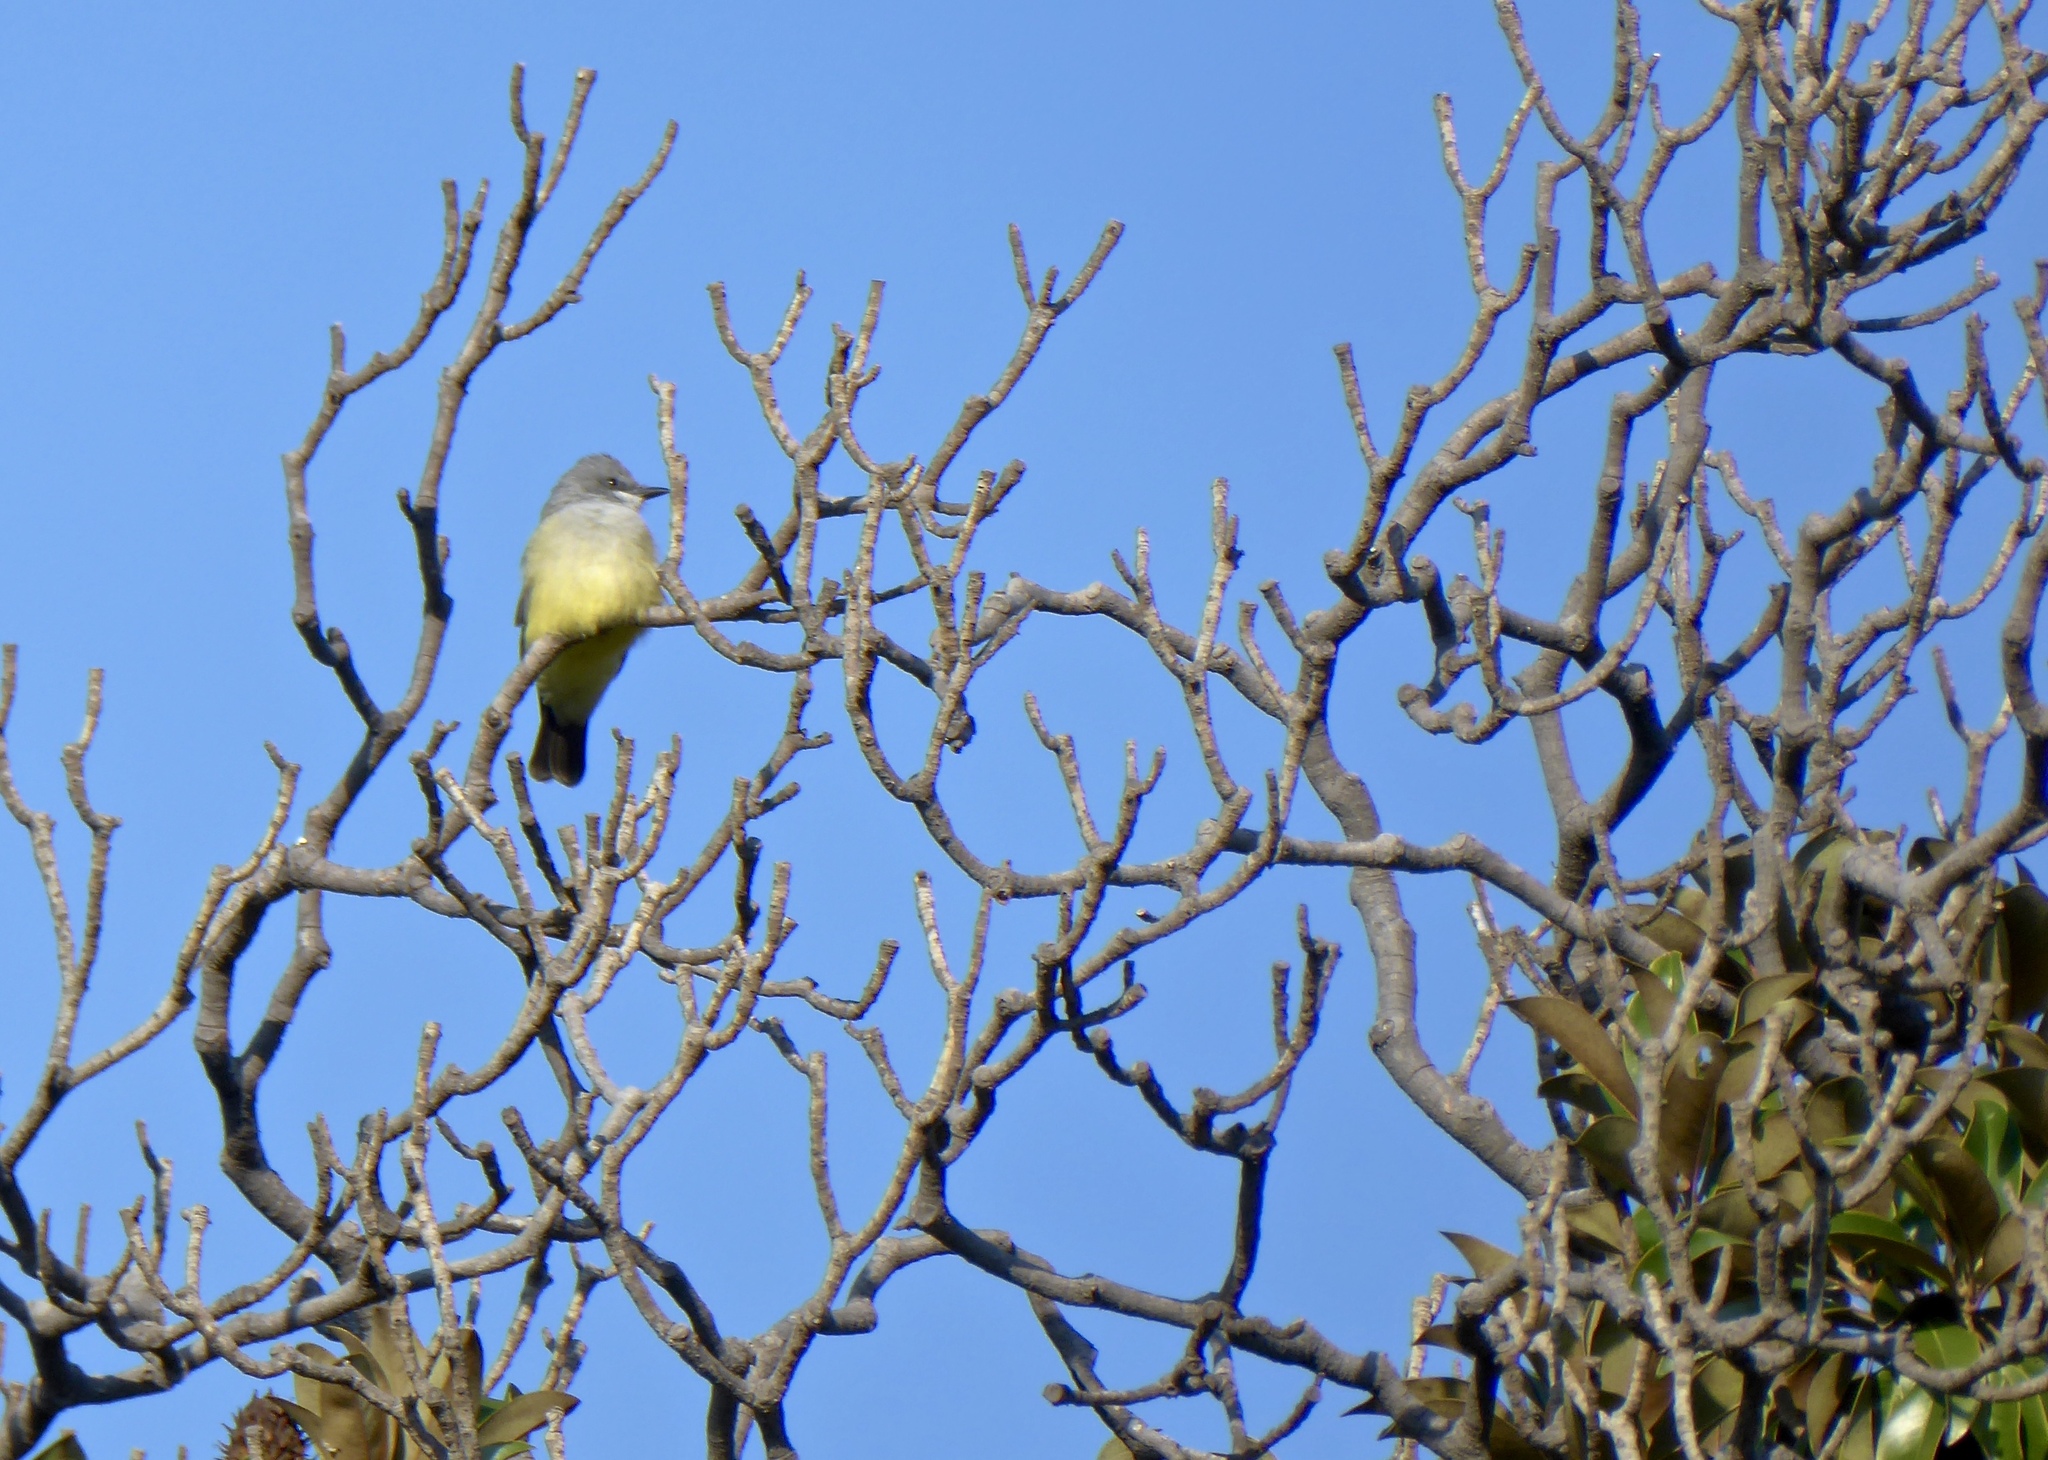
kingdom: Animalia
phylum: Chordata
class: Aves
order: Passeriformes
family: Tyrannidae
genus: Tyrannus
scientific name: Tyrannus vociferans
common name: Cassin's kingbird
